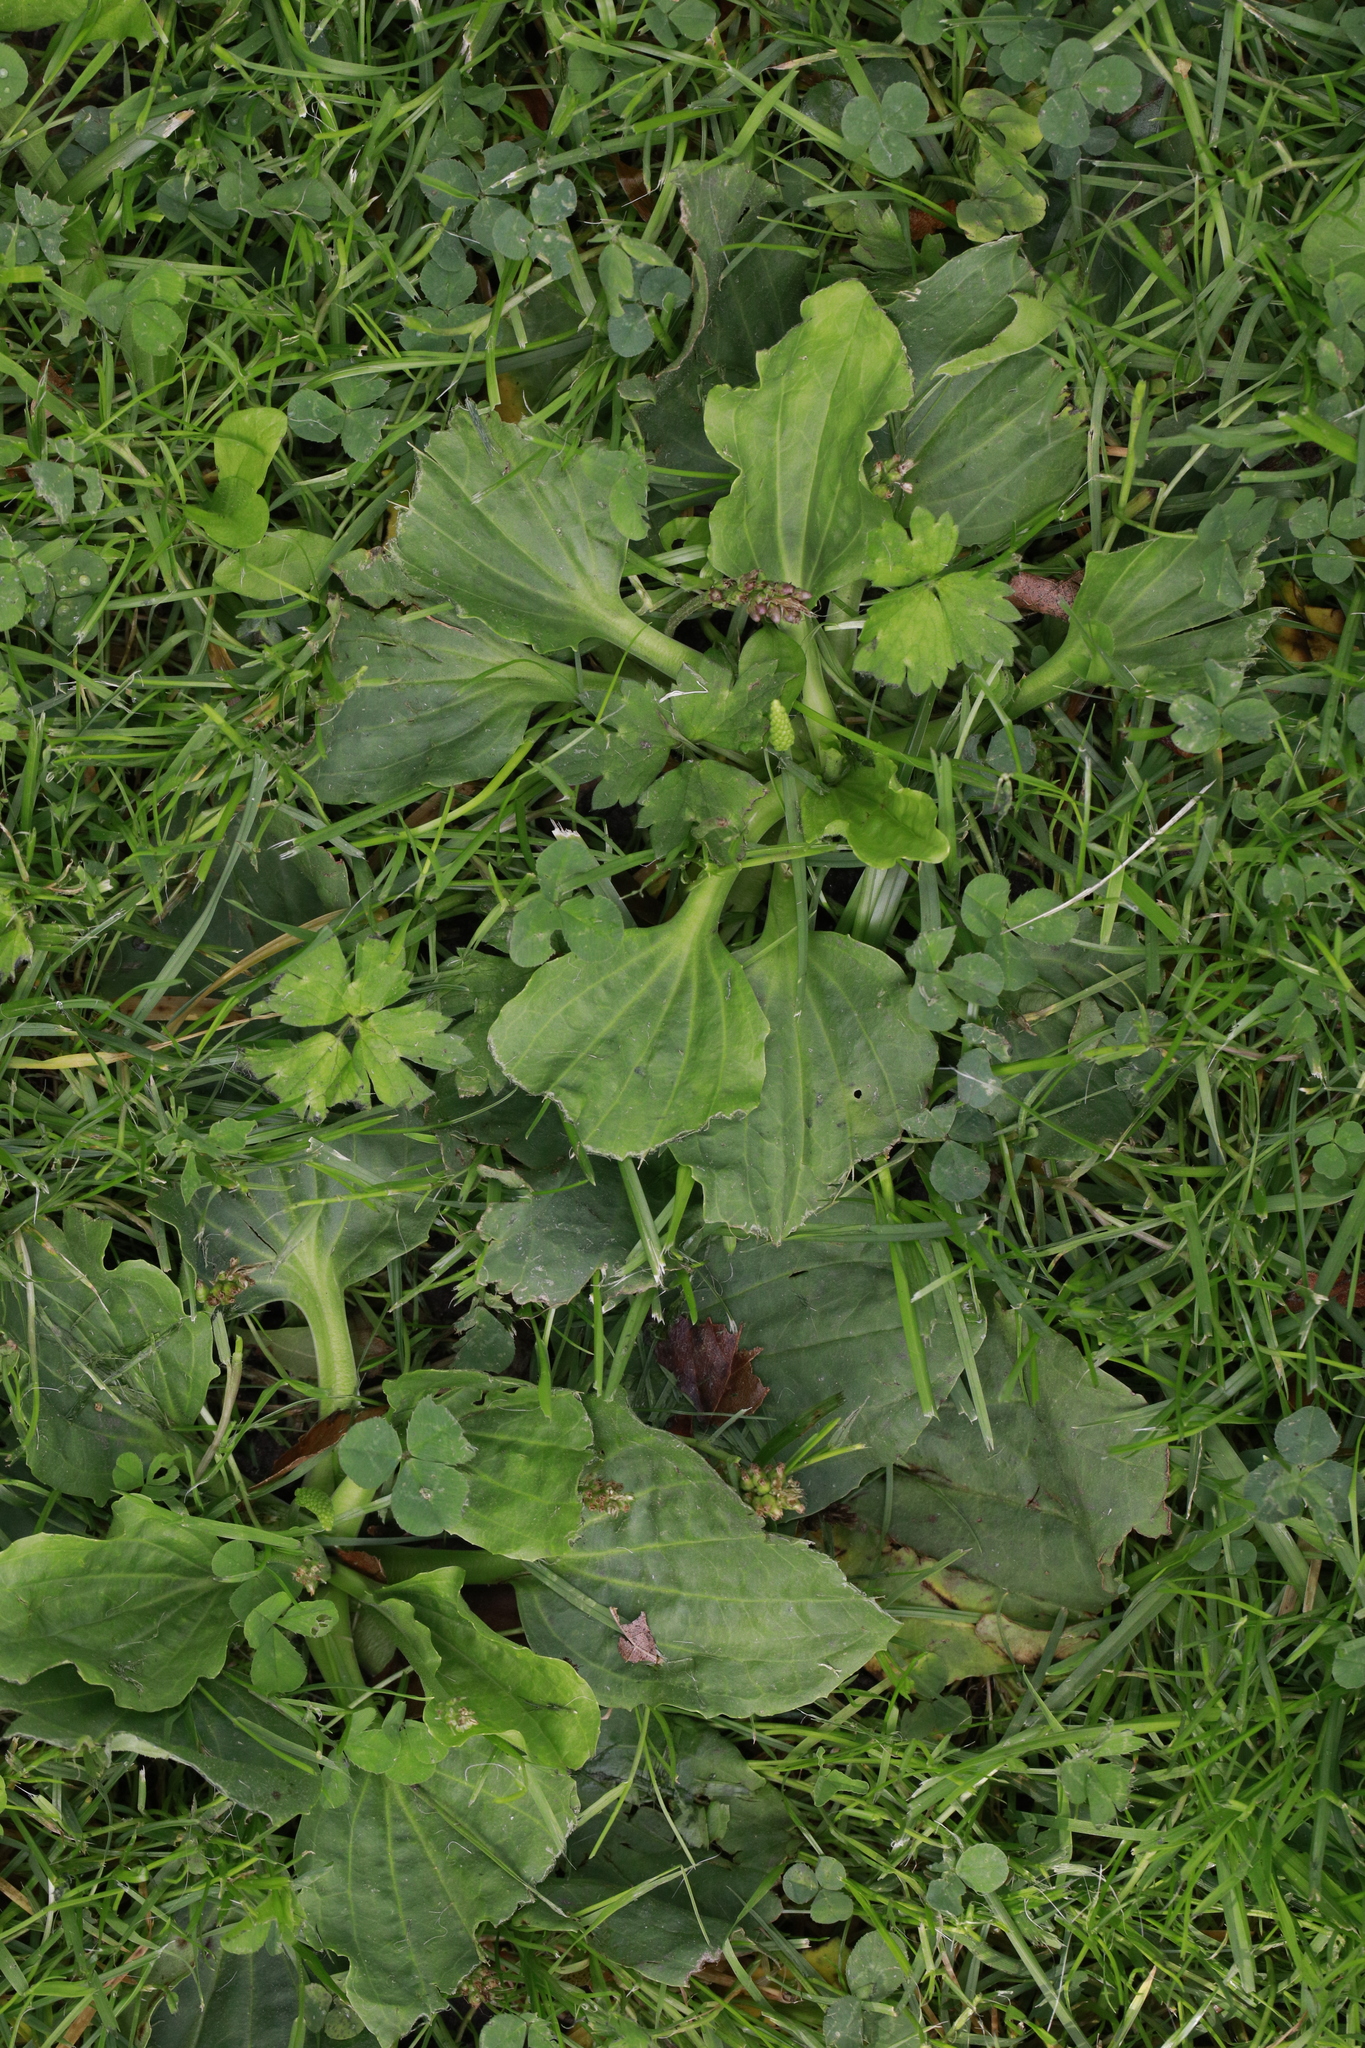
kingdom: Plantae
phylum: Tracheophyta
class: Magnoliopsida
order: Lamiales
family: Plantaginaceae
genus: Plantago
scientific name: Plantago major
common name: Common plantain
